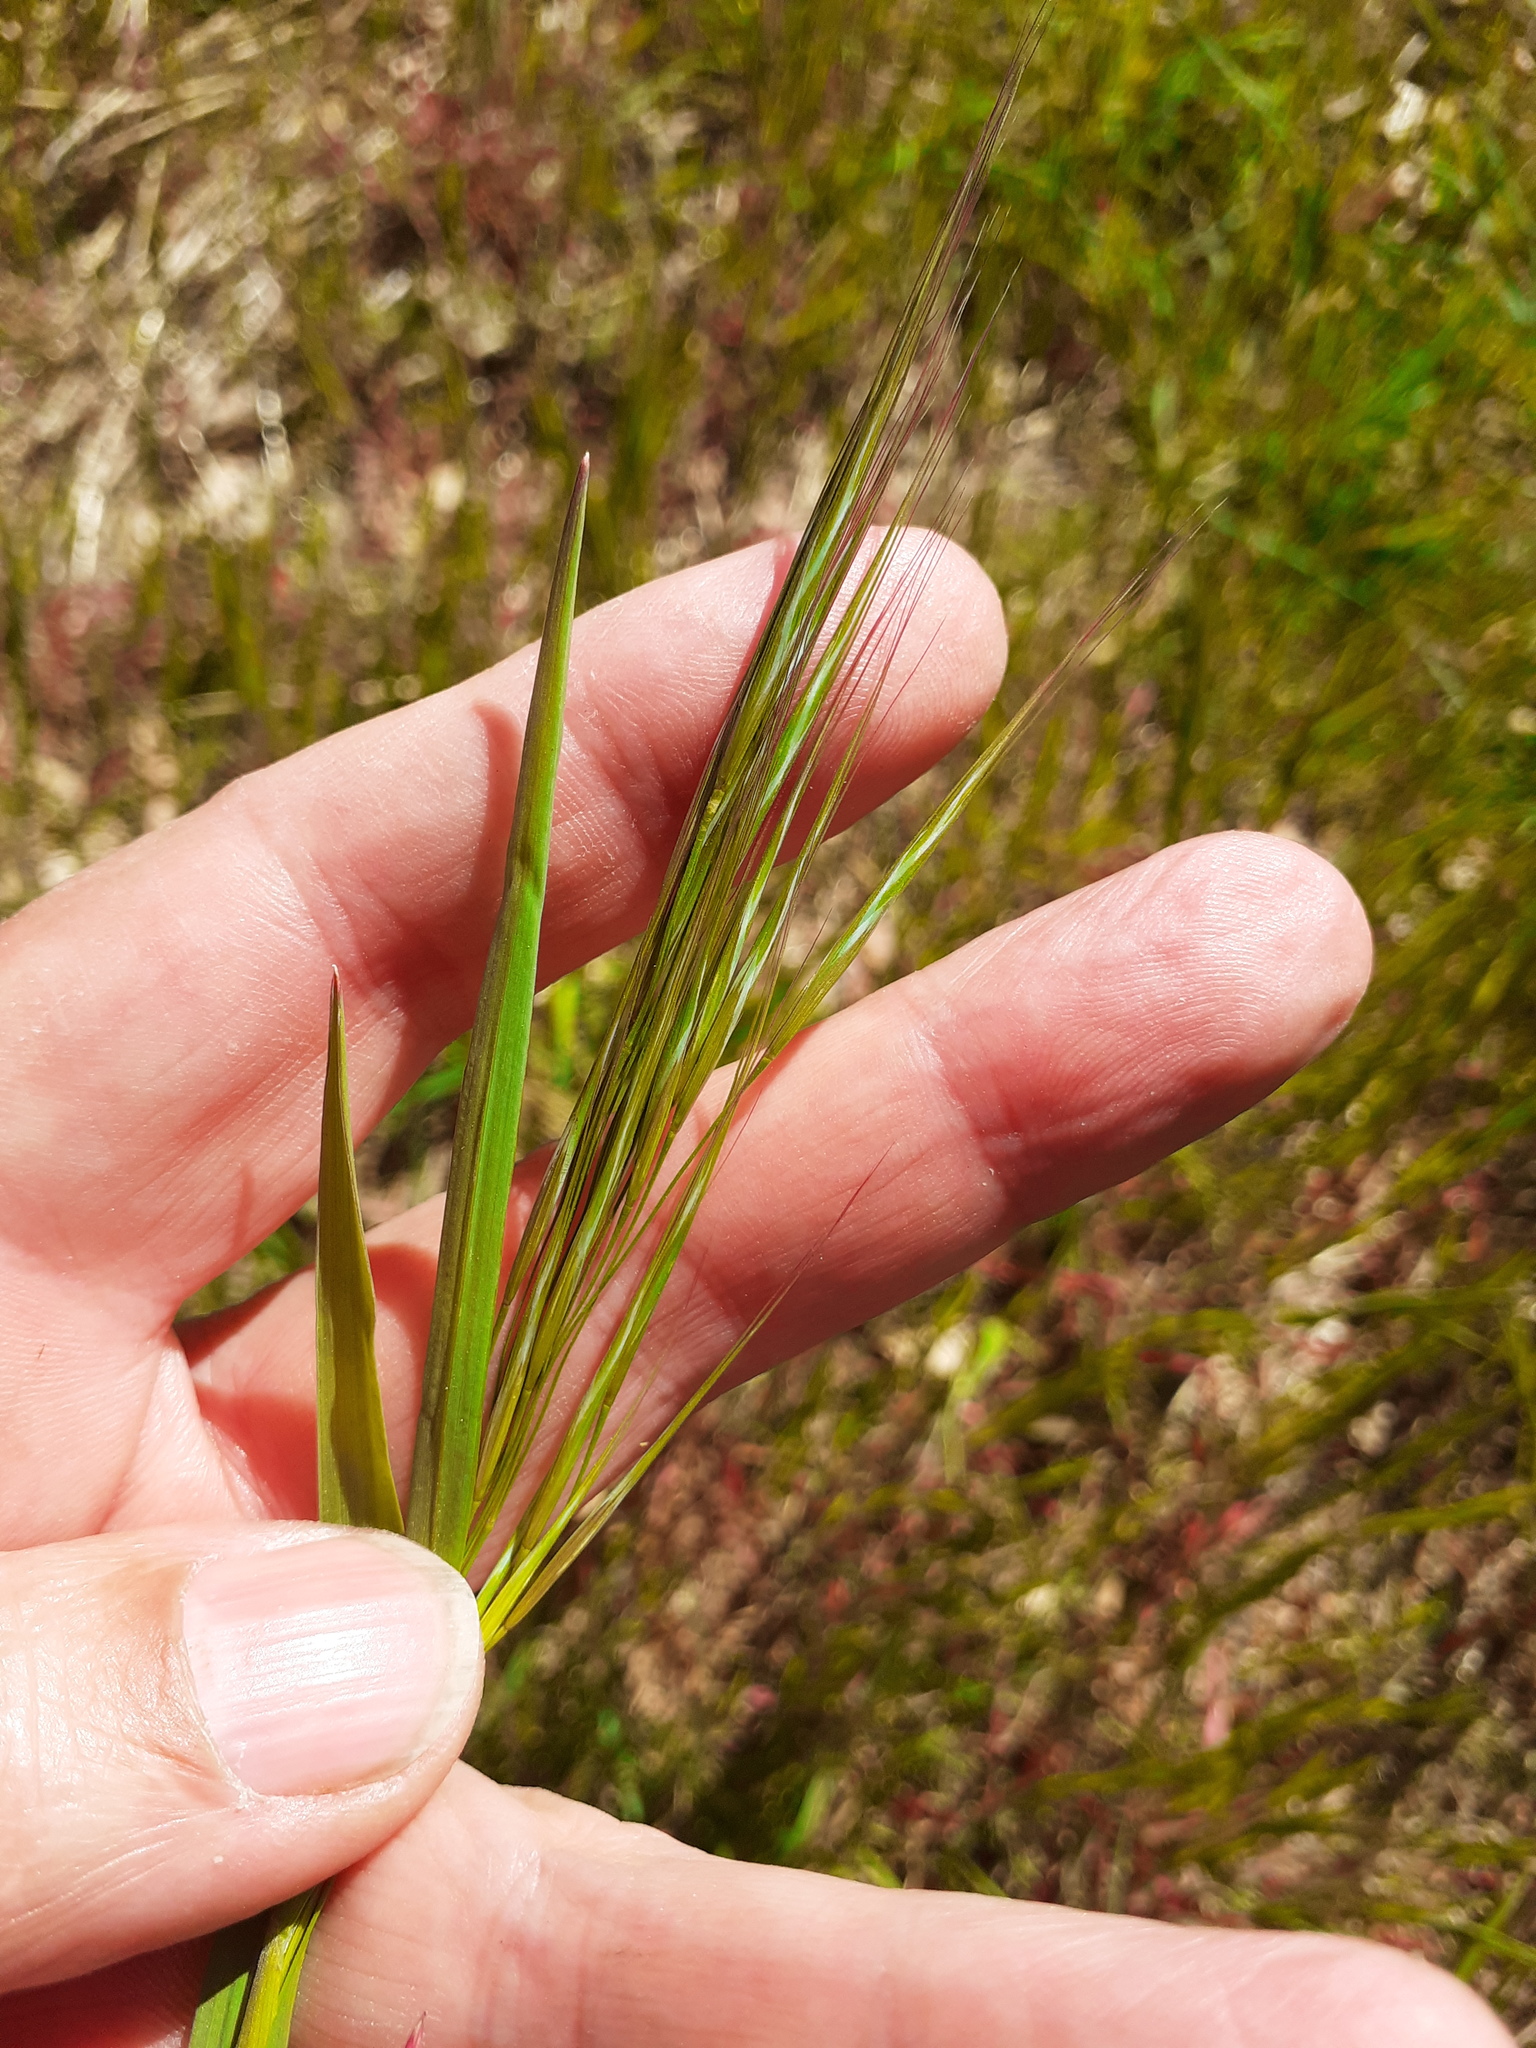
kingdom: Plantae
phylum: Tracheophyta
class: Liliopsida
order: Poales
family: Poaceae
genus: Bromus
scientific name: Bromus sterilis
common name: Poverty brome
